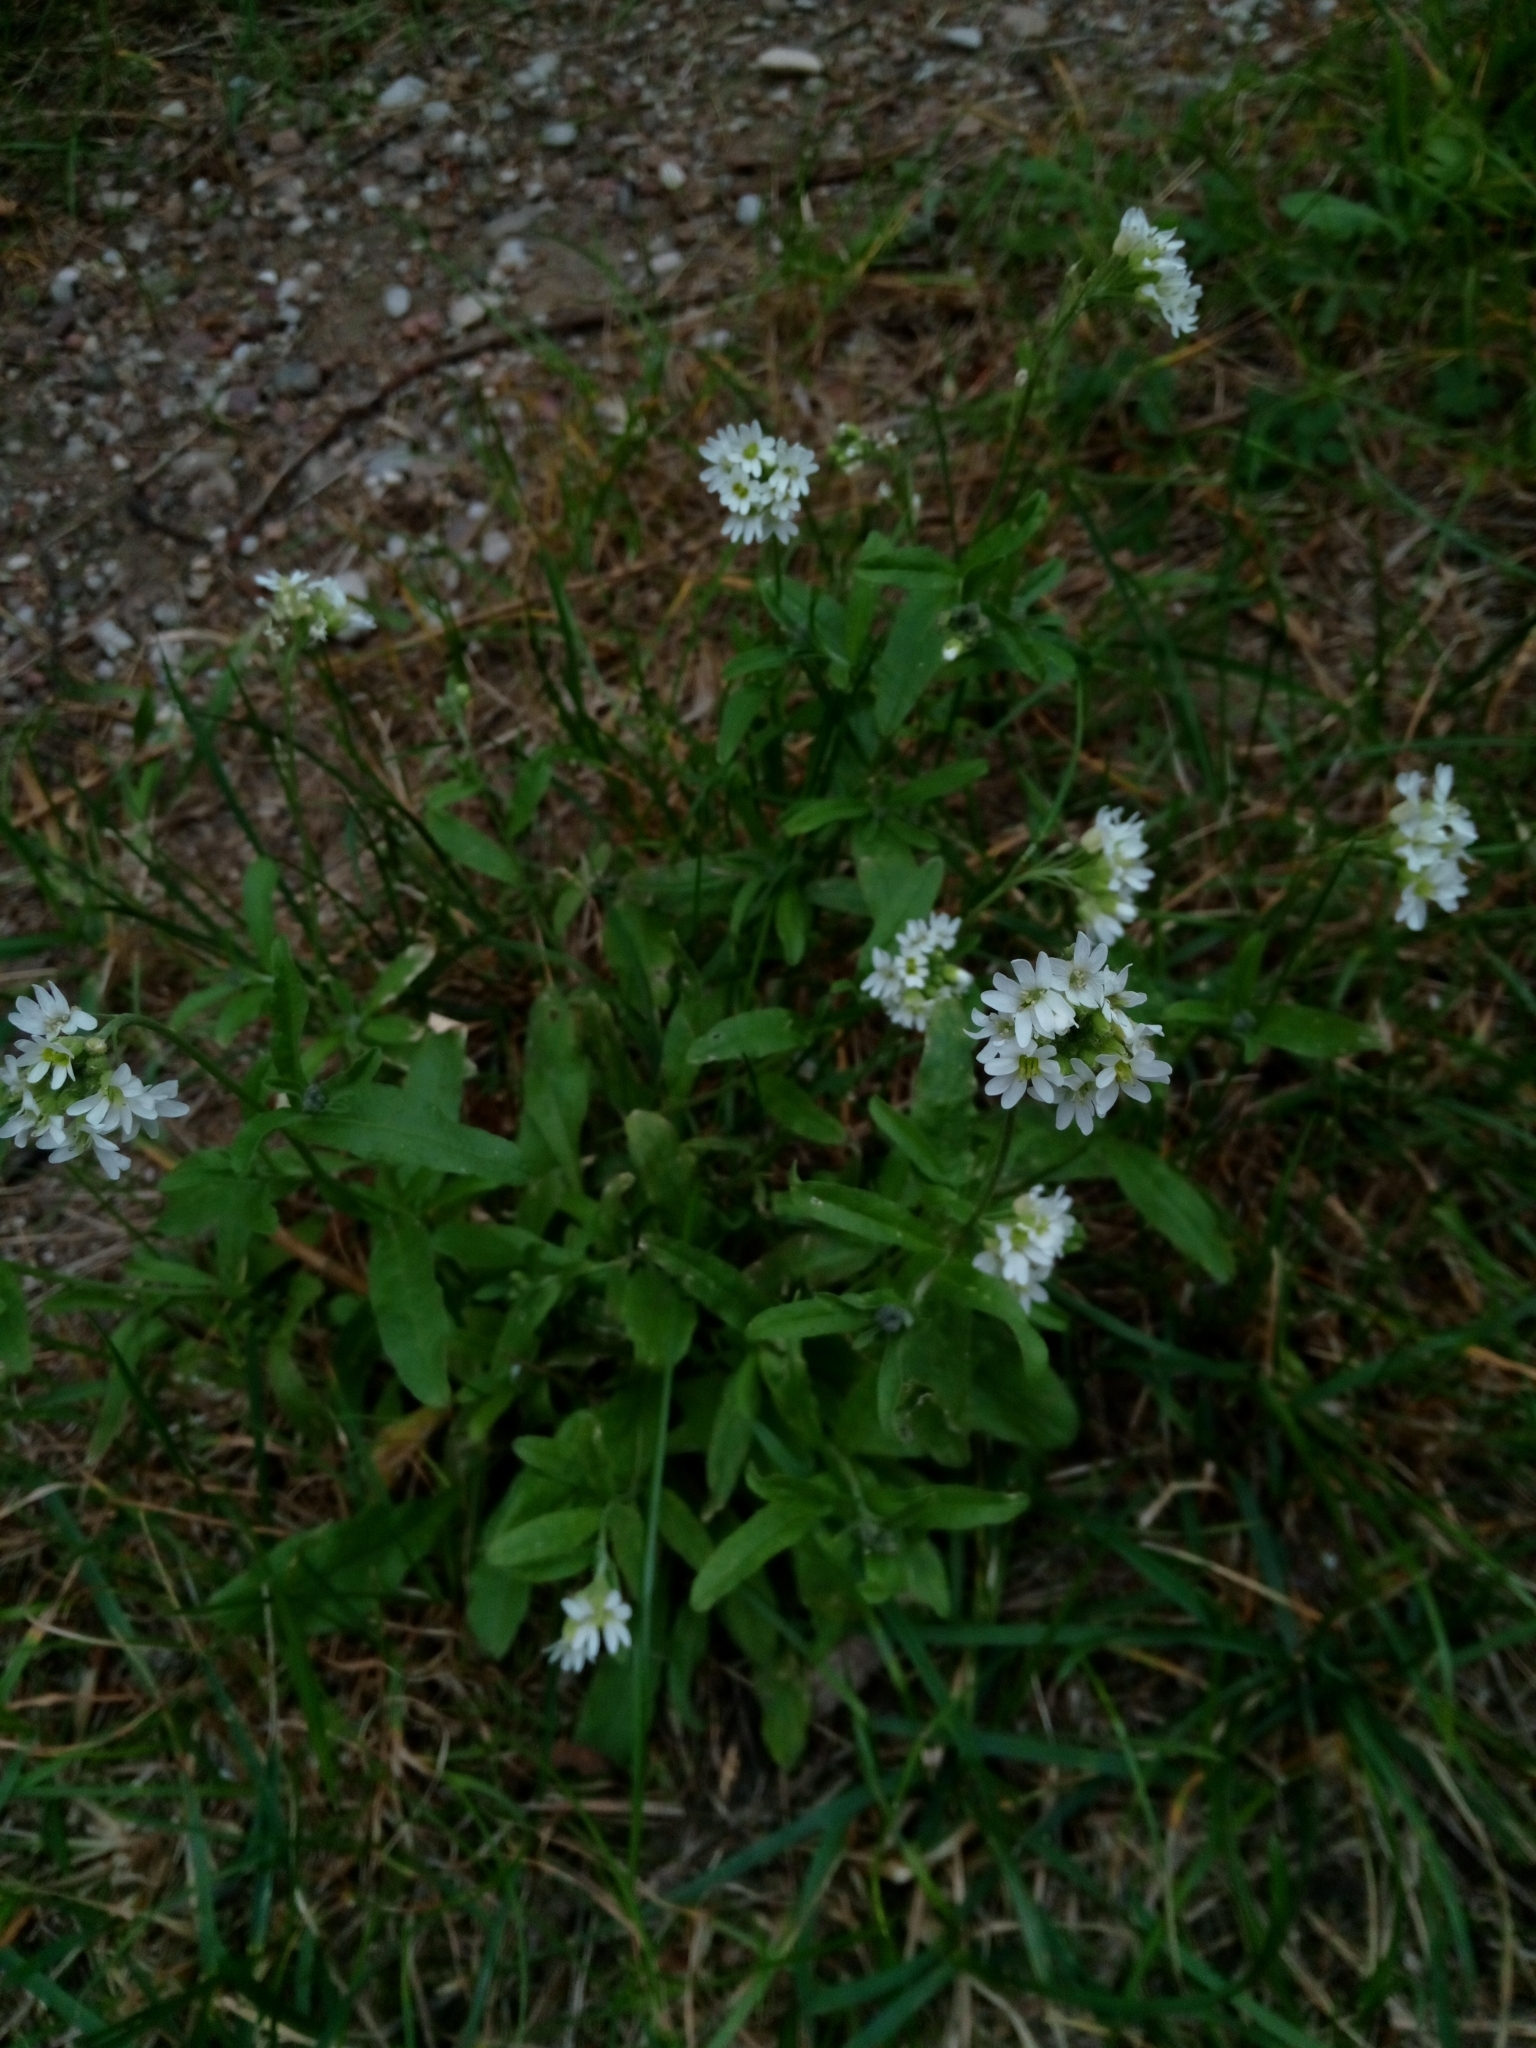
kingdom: Plantae
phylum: Tracheophyta
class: Magnoliopsida
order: Brassicales
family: Brassicaceae
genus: Berteroa
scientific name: Berteroa incana
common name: Hoary alison
